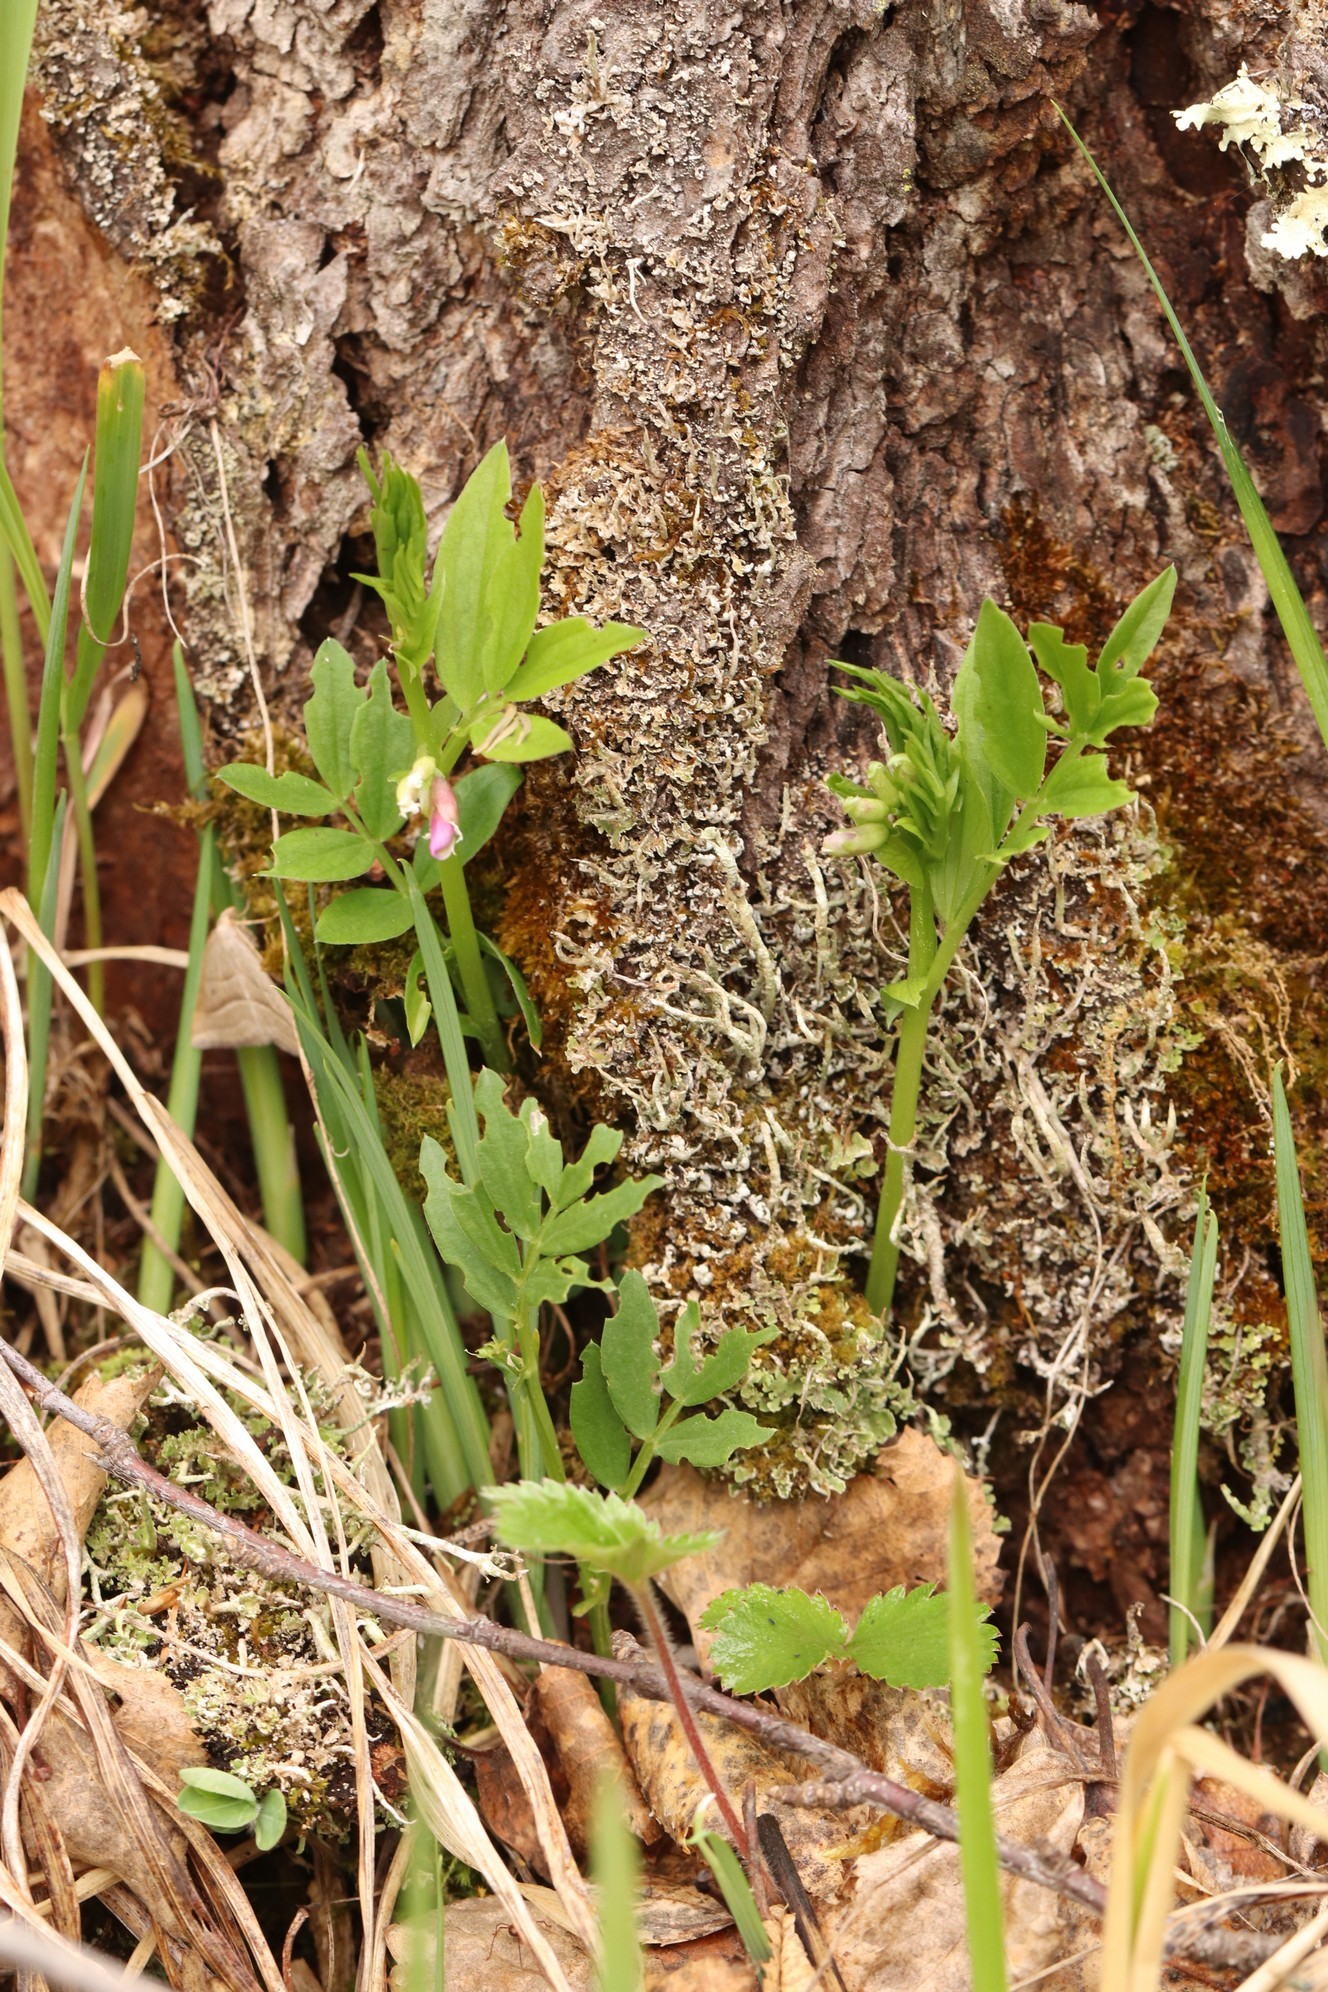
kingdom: Plantae
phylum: Tracheophyta
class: Magnoliopsida
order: Fabales
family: Fabaceae
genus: Lathyrus
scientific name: Lathyrus frolovii
